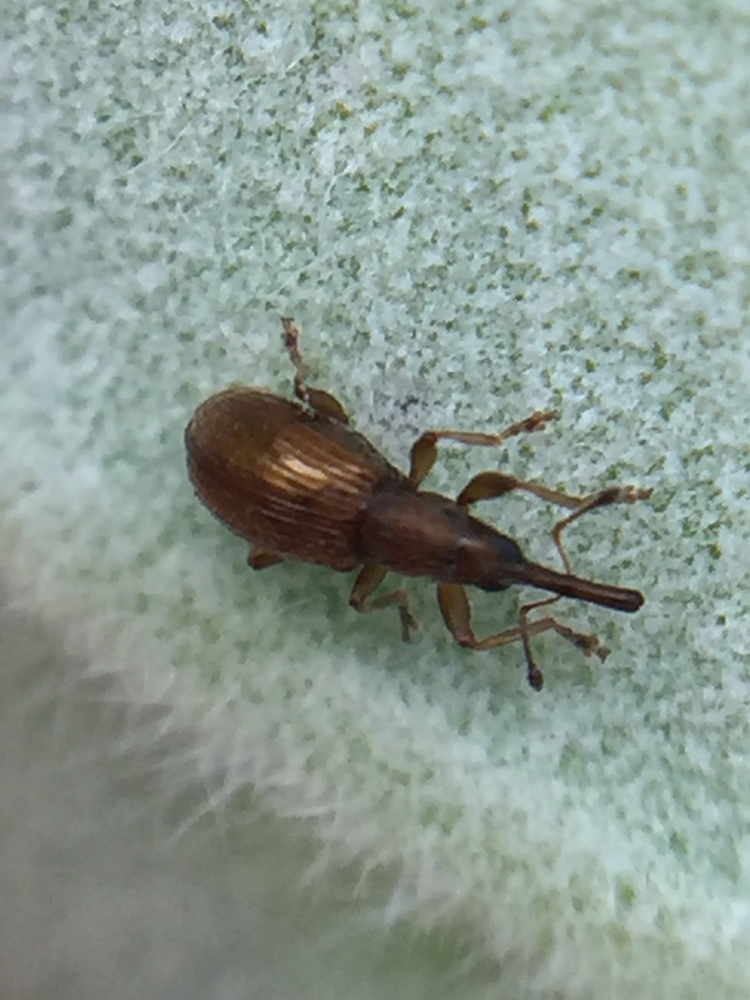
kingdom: Animalia
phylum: Arthropoda
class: Insecta
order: Coleoptera
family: Brentidae
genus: Neocyba
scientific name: Neocyba metrosideros
